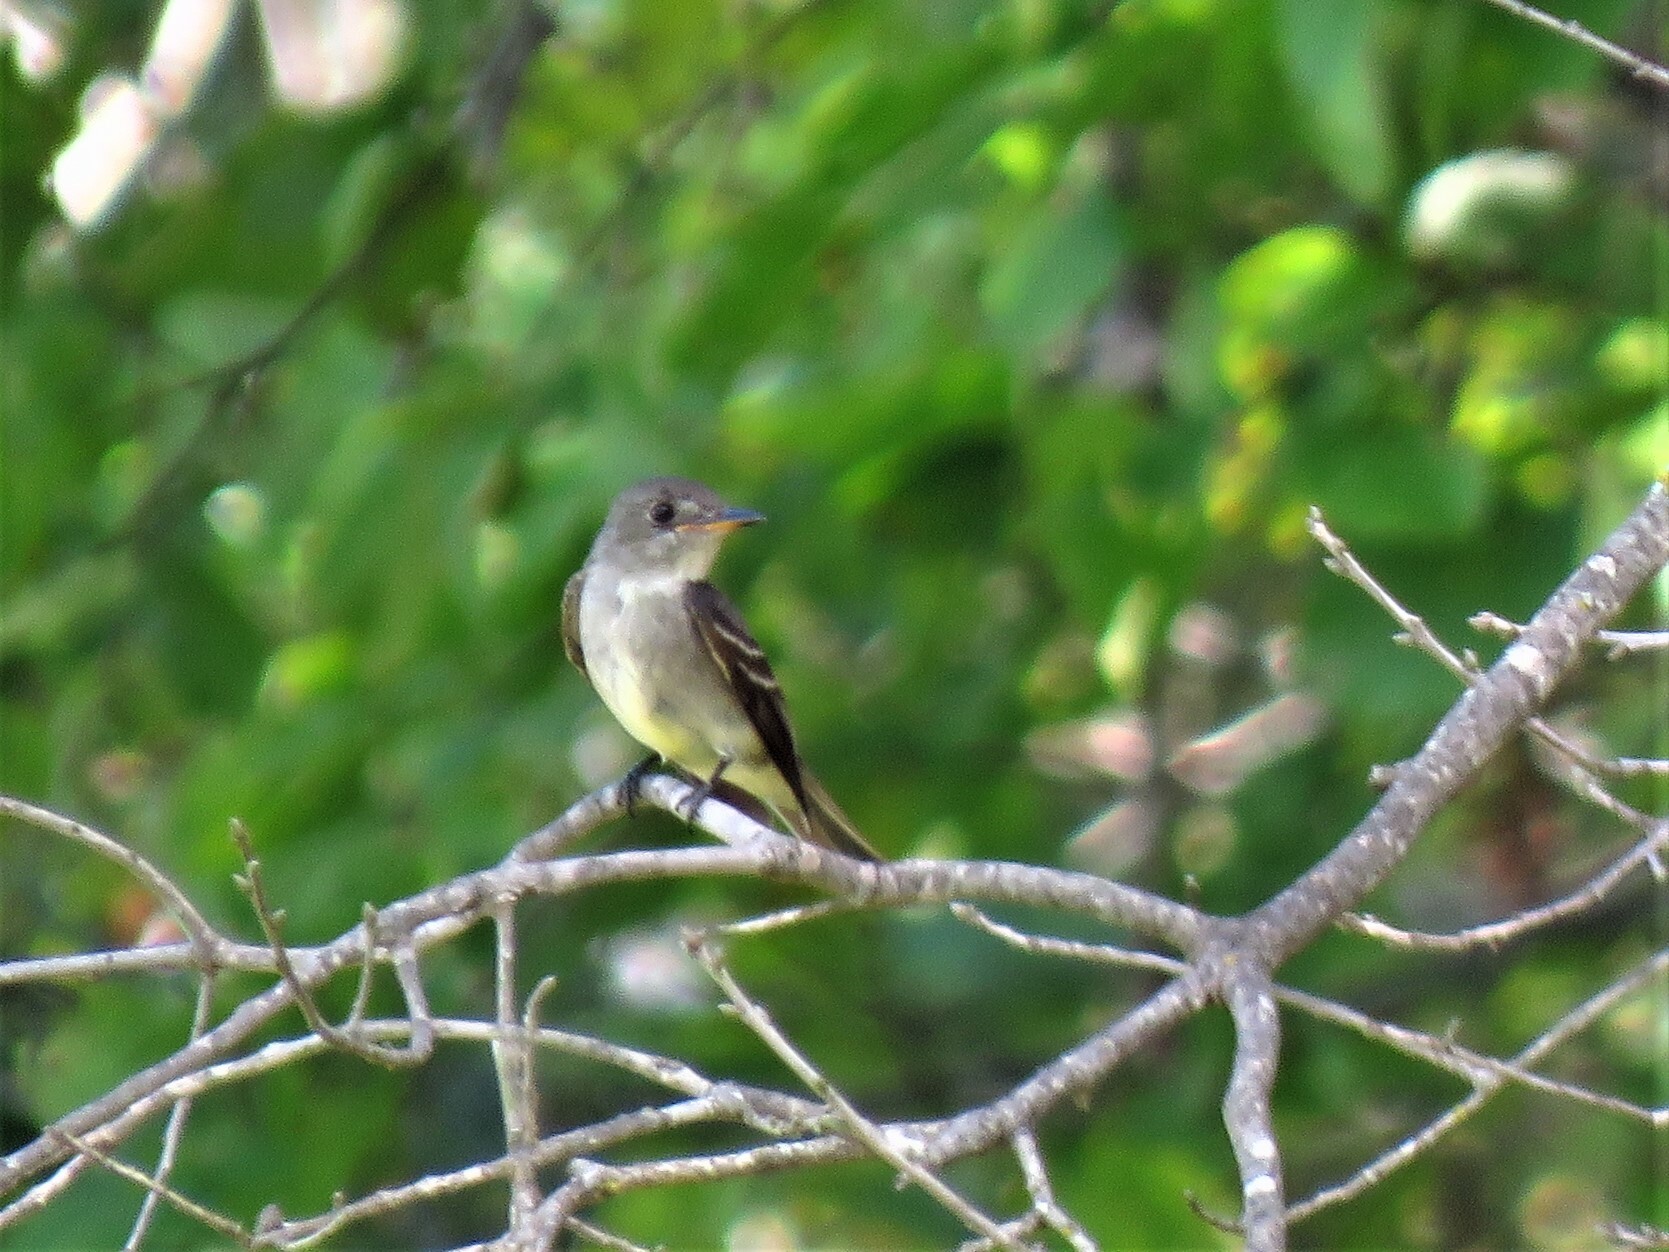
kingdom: Animalia
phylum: Chordata
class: Aves
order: Passeriformes
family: Tyrannidae
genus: Contopus
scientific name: Contopus virens
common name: Eastern wood-pewee
